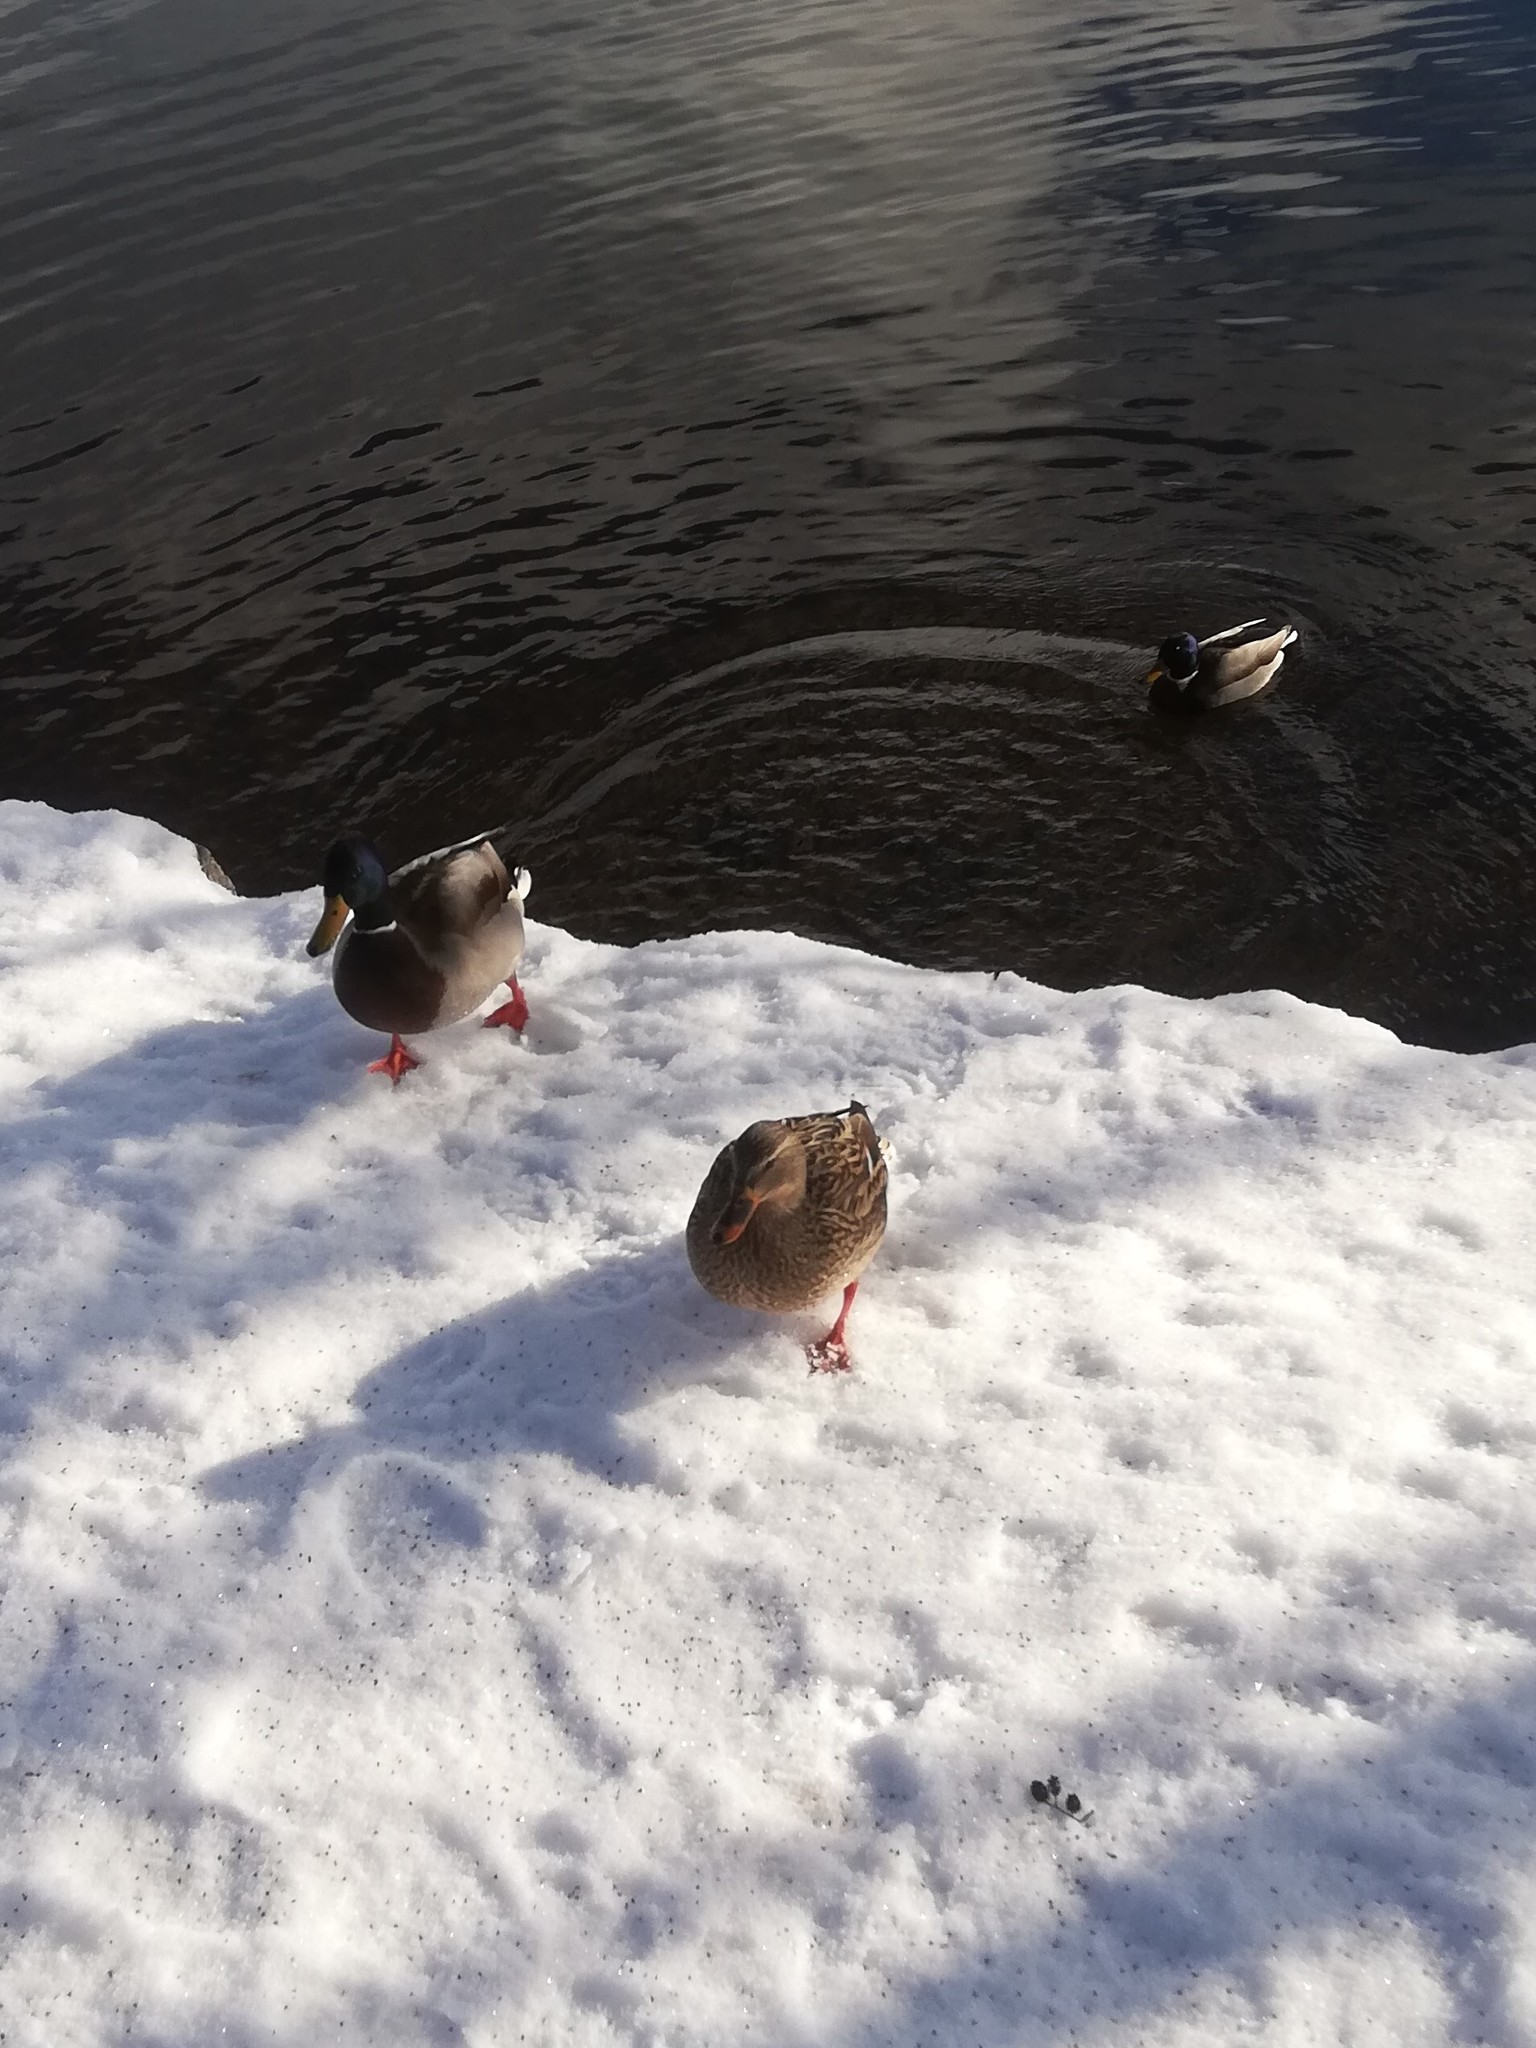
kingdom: Animalia
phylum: Chordata
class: Aves
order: Anseriformes
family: Anatidae
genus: Anas
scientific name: Anas platyrhynchos
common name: Mallard
